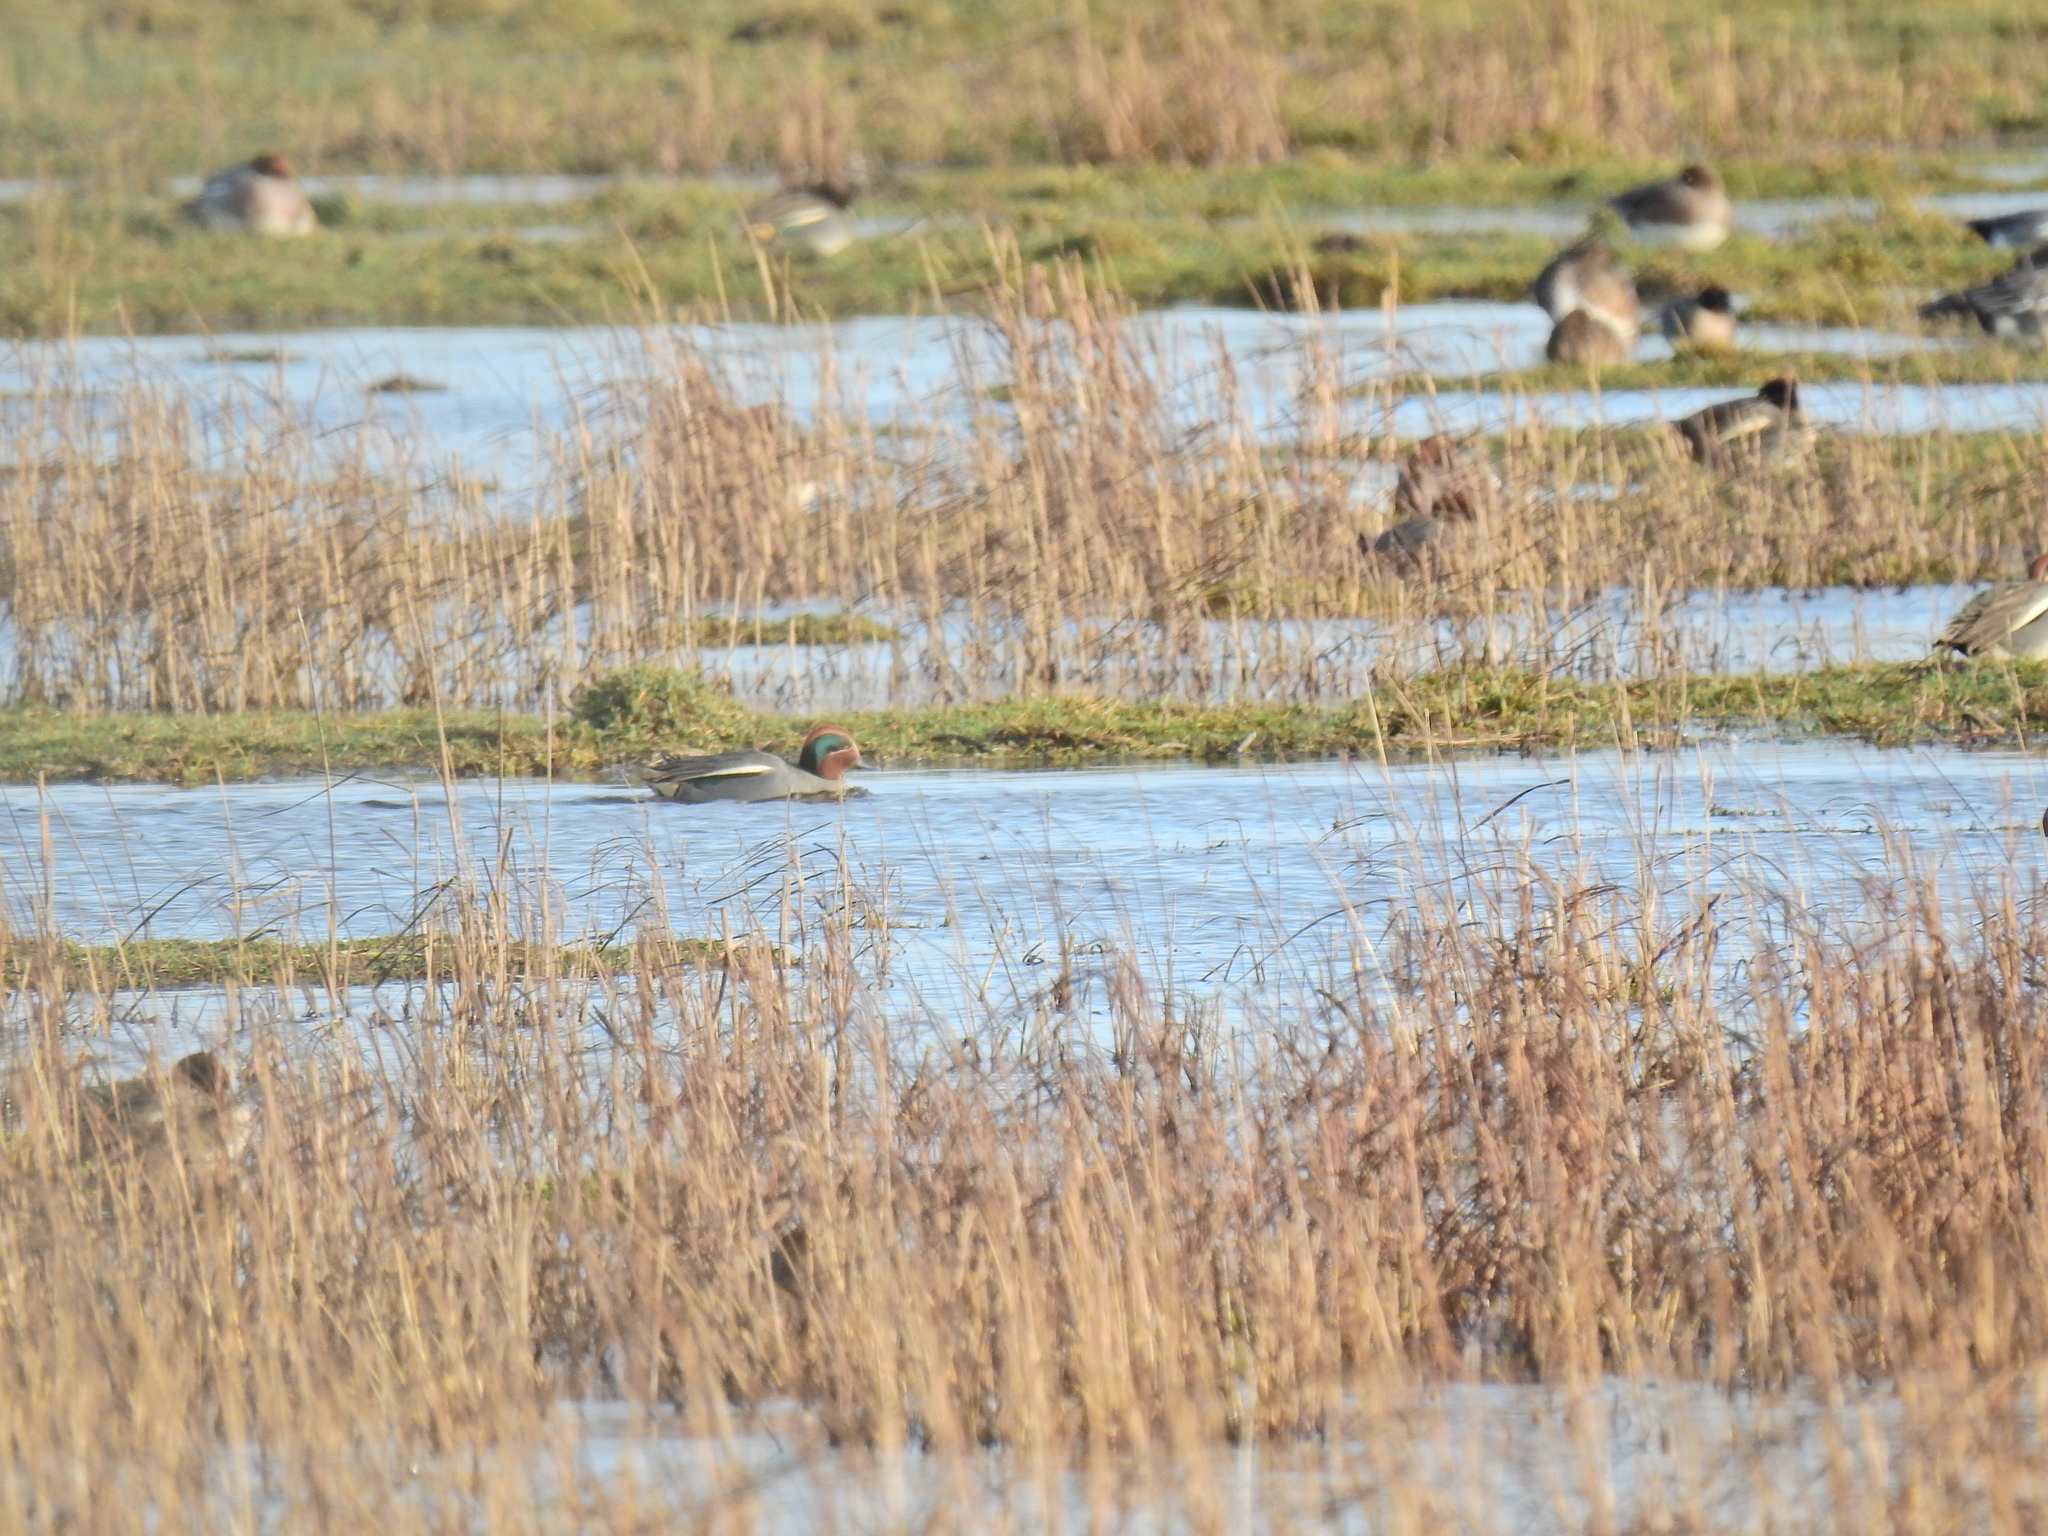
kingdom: Animalia
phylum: Chordata
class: Aves
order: Anseriformes
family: Anatidae
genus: Anas
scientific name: Anas crecca
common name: Eurasian teal
